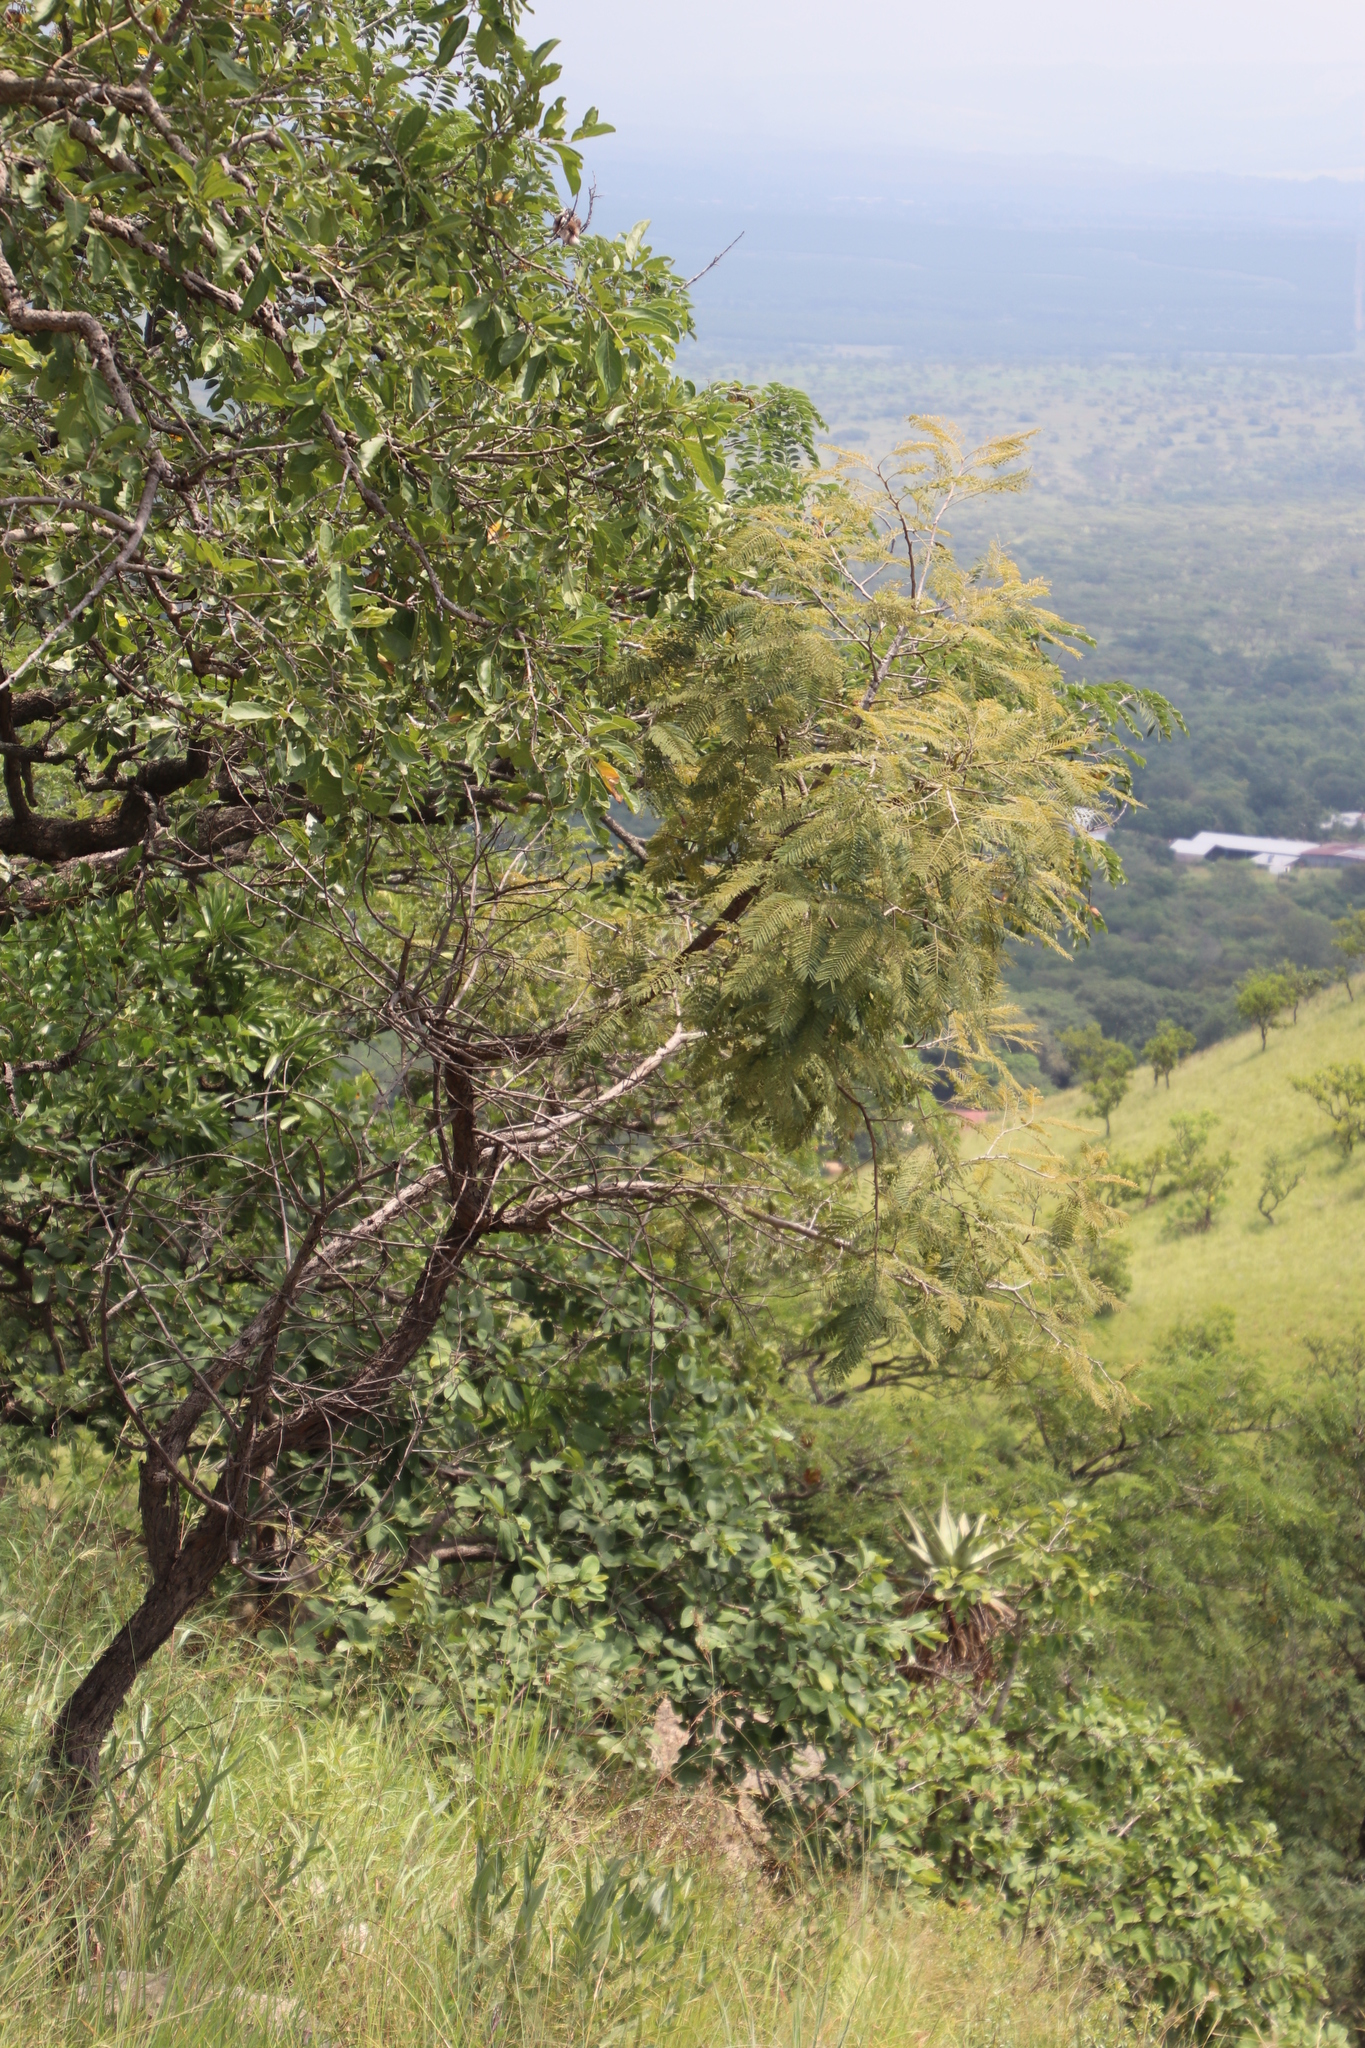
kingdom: Plantae
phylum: Tracheophyta
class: Magnoliopsida
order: Fabales
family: Fabaceae
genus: Senegalia
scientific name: Senegalia caffra
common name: Cat thorn
